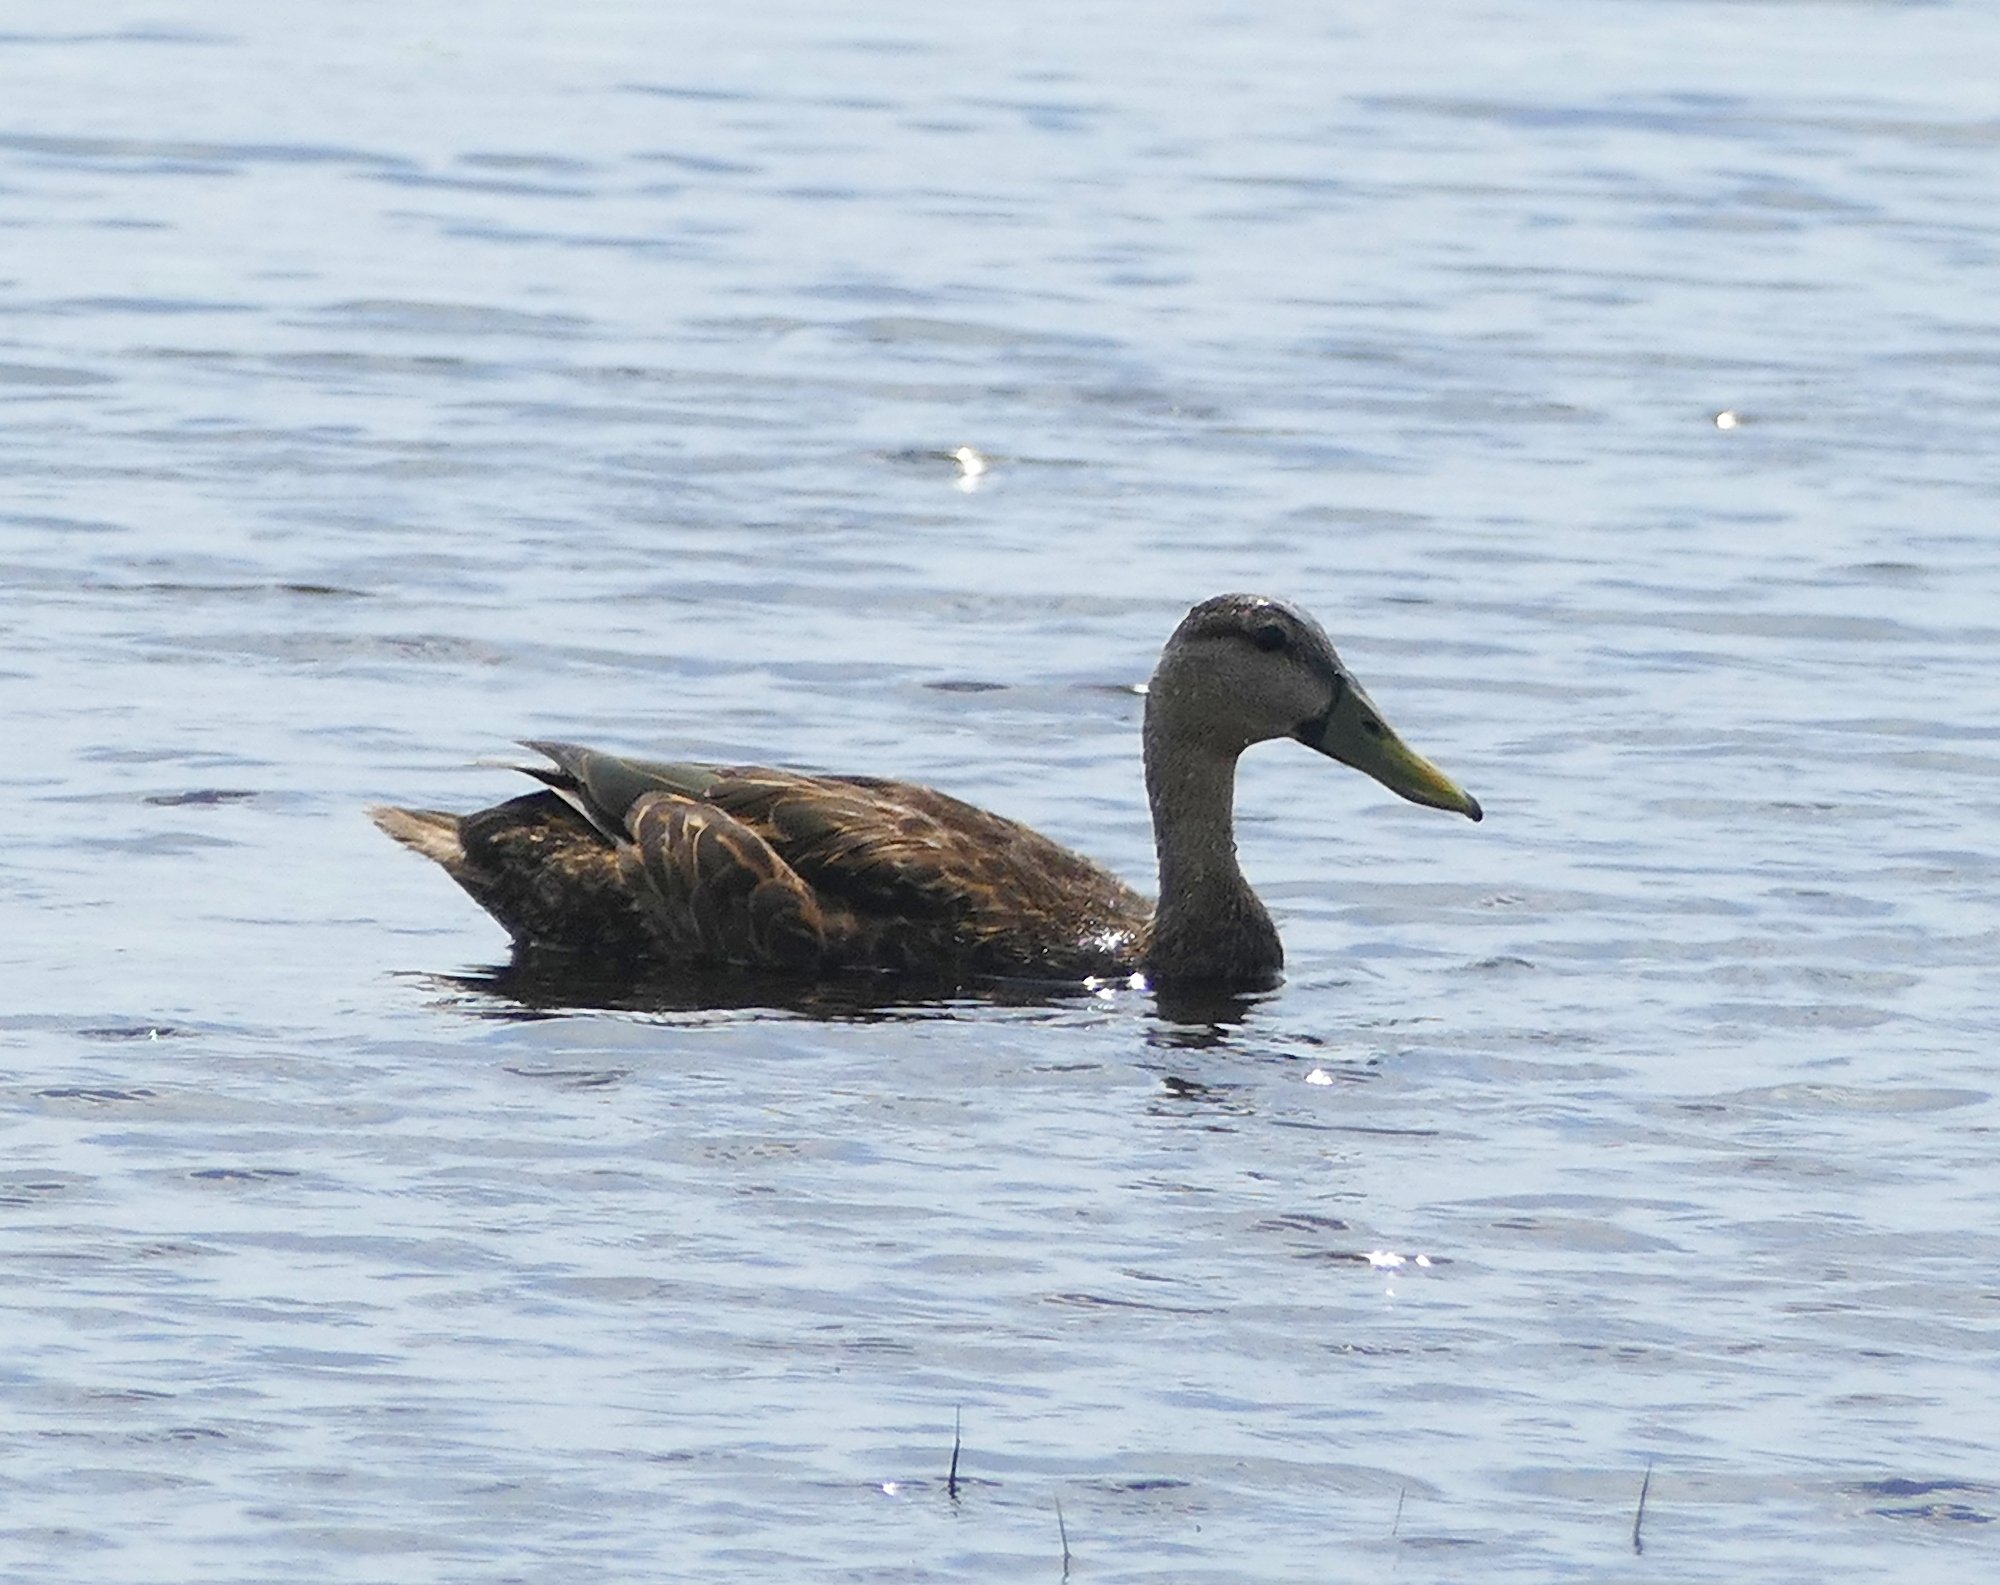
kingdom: Animalia
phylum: Chordata
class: Aves
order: Anseriformes
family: Anatidae
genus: Anas
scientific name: Anas fulvigula
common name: Mottled duck
